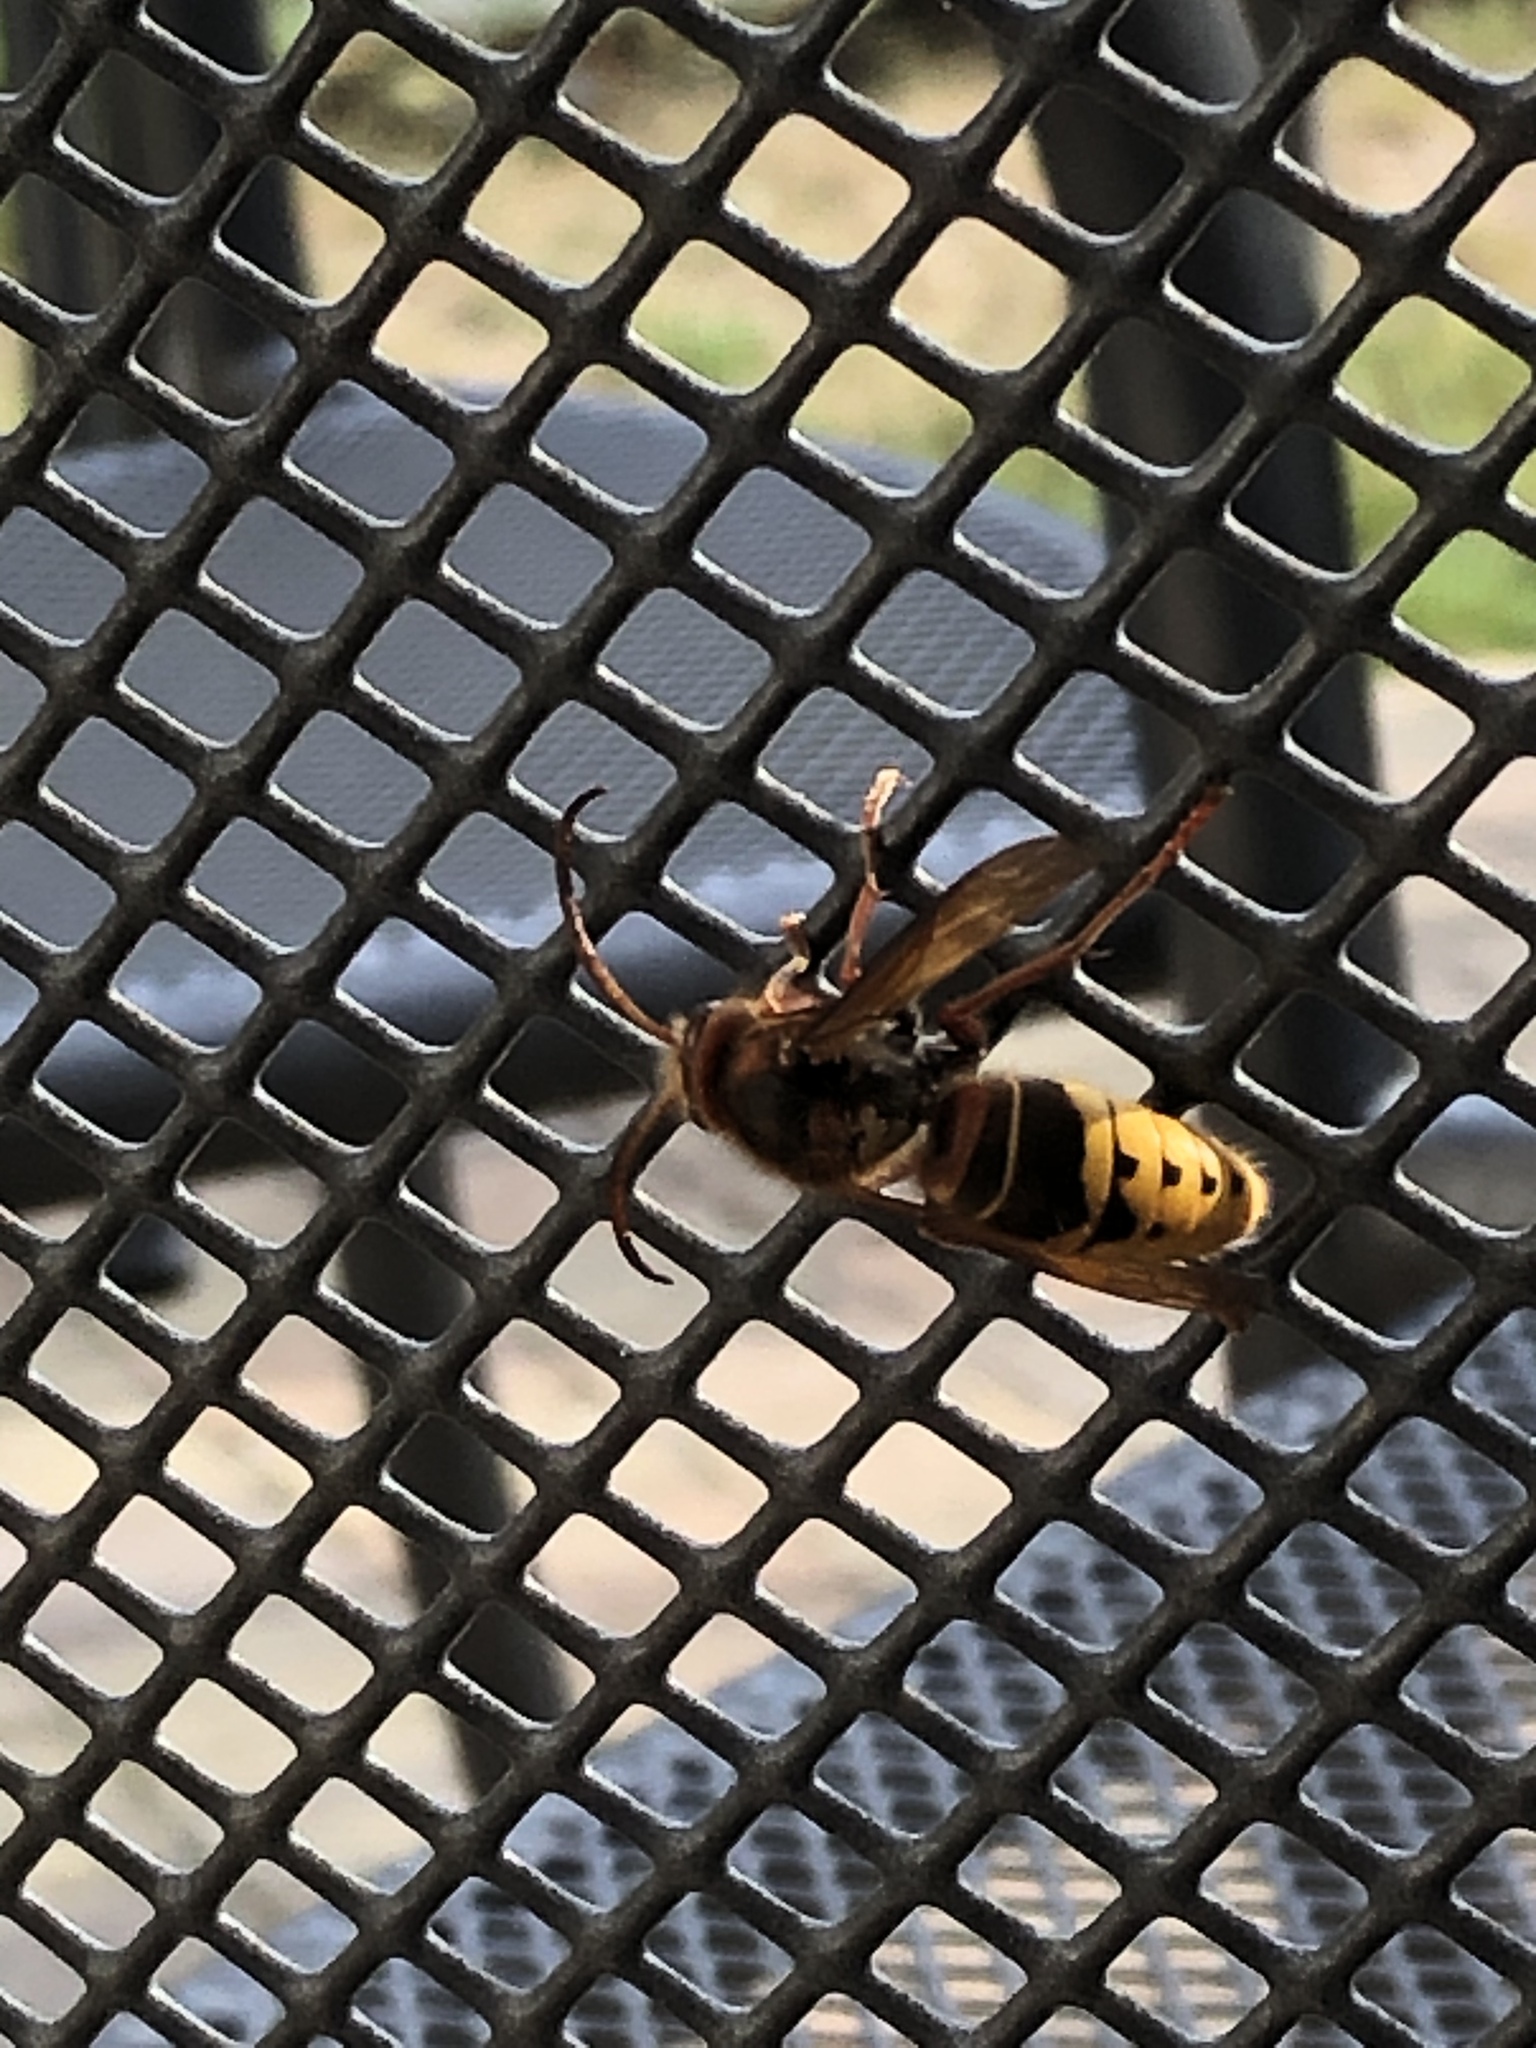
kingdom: Animalia
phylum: Arthropoda
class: Insecta
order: Hymenoptera
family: Vespidae
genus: Vespa
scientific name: Vespa crabro
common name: Hornet
